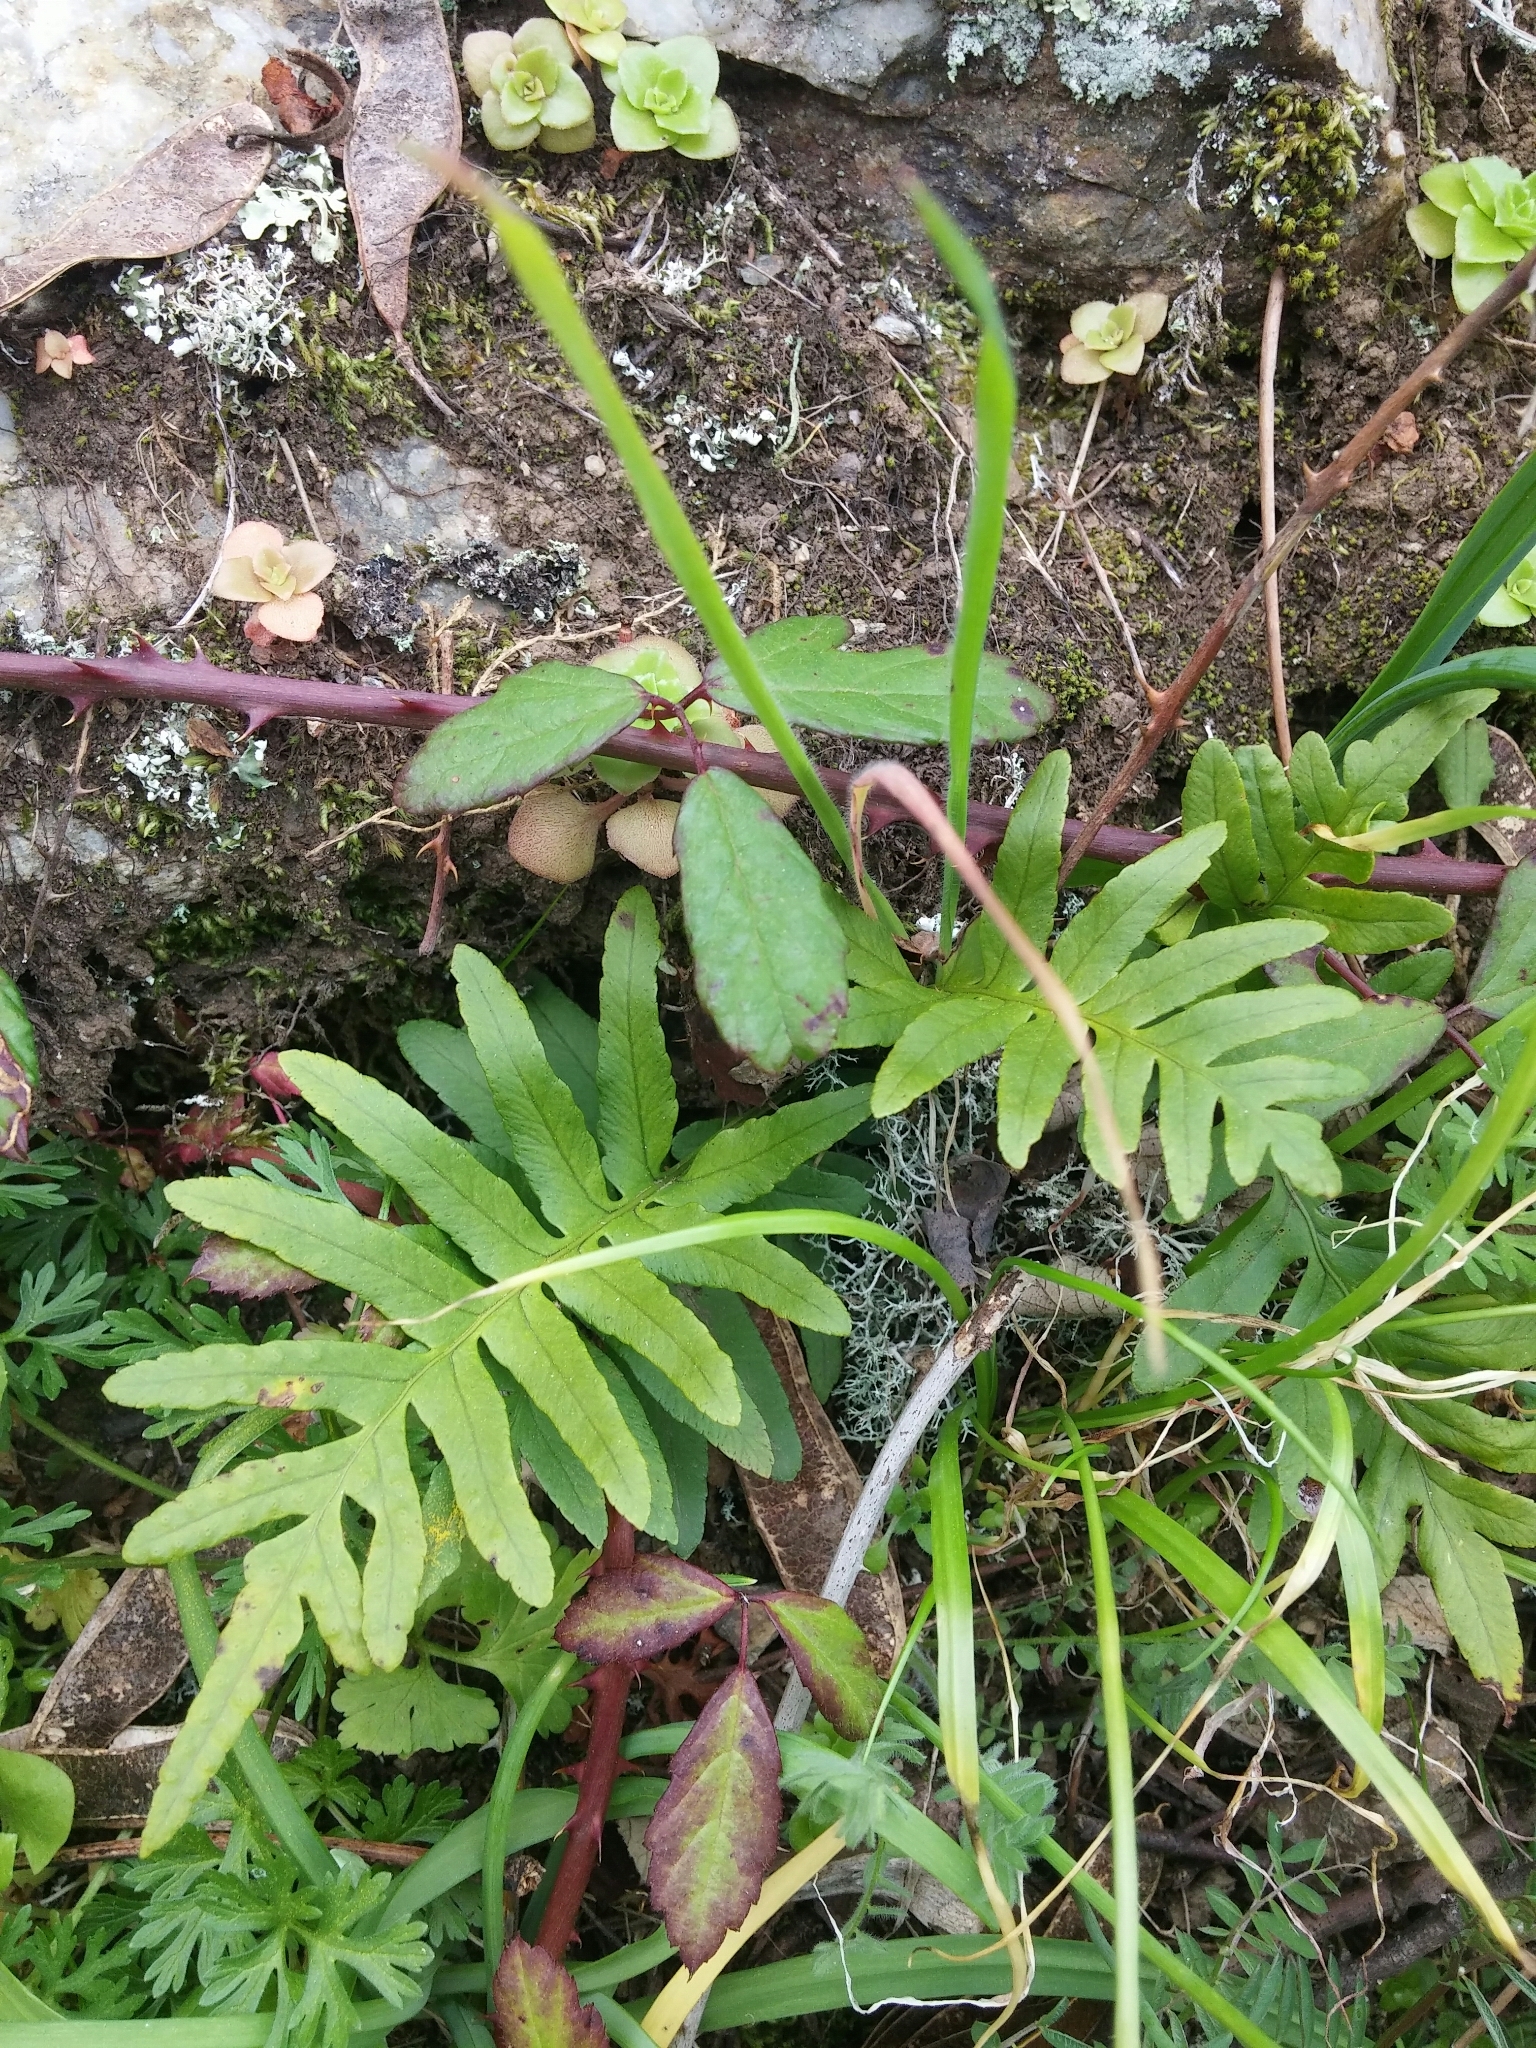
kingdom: Plantae
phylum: Tracheophyta
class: Polypodiopsida
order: Polypodiales
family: Polypodiaceae
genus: Polypodium
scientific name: Polypodium cambricum
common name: Southern polypody
